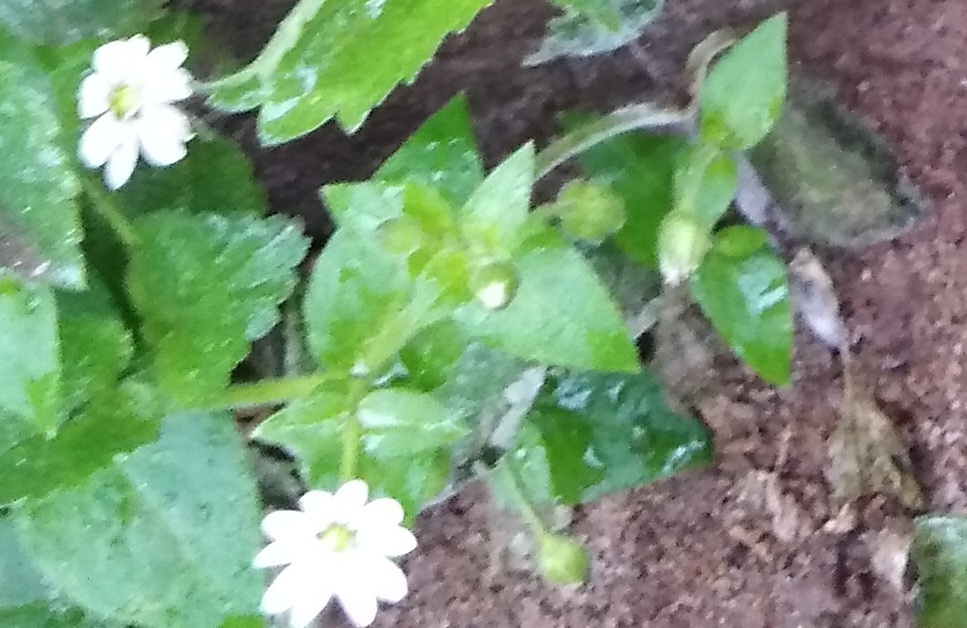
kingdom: Plantae
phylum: Tracheophyta
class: Magnoliopsida
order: Caryophyllales
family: Caryophyllaceae
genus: Stellaria
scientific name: Stellaria aquatica
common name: Water chickweed
